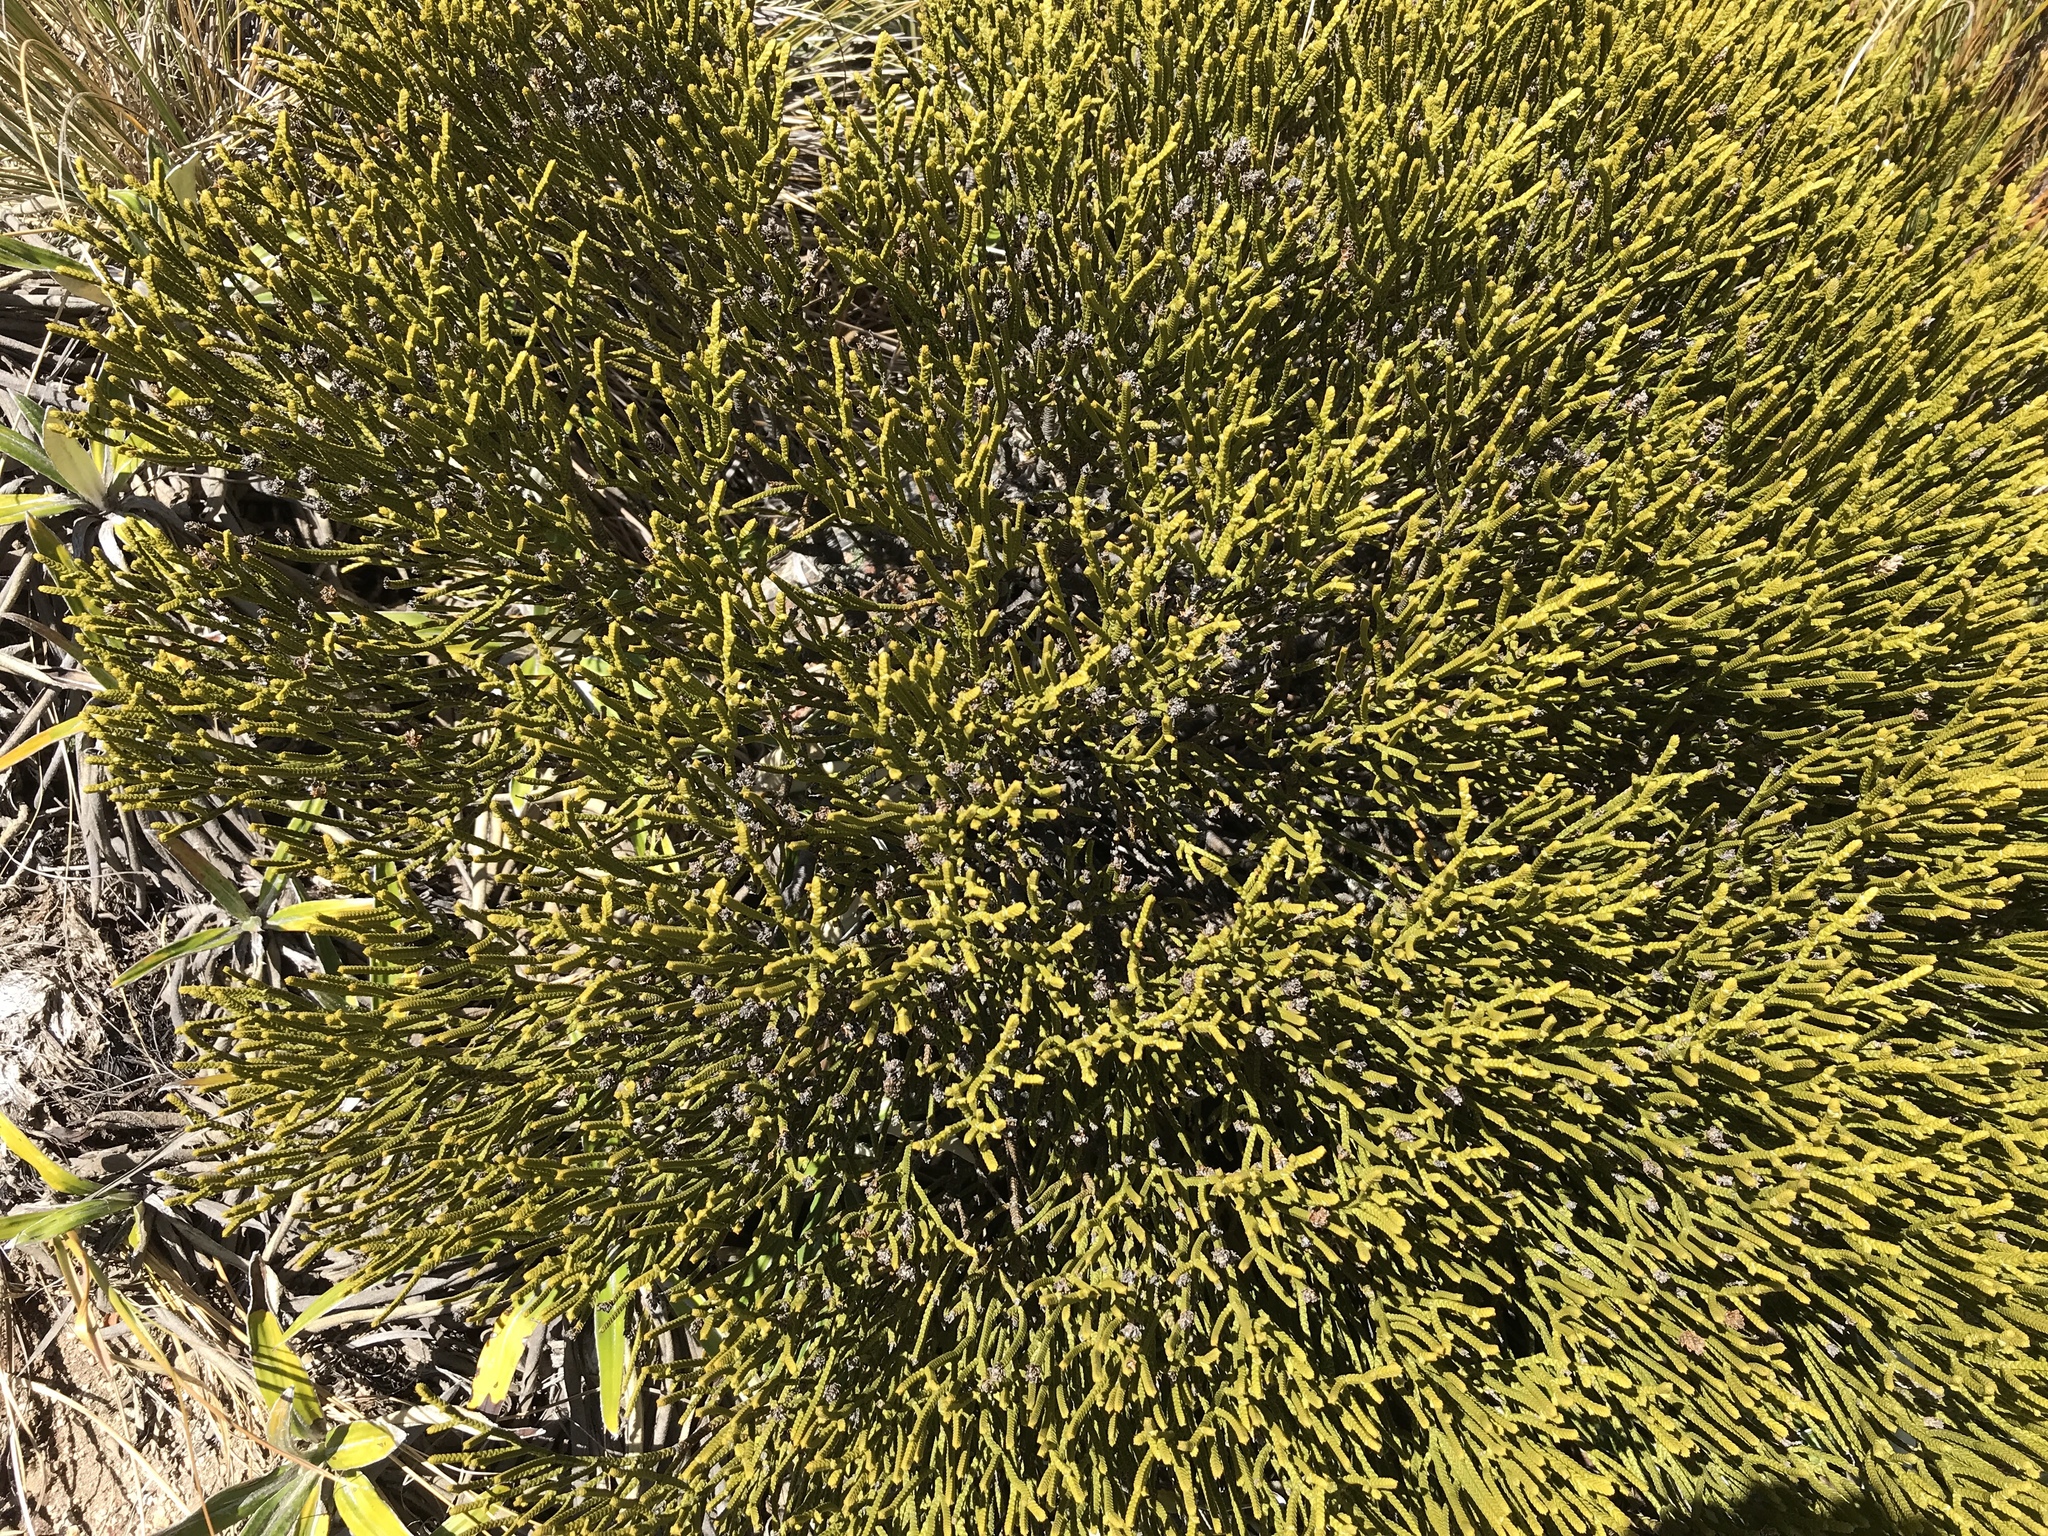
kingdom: Plantae
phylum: Tracheophyta
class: Magnoliopsida
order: Lamiales
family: Plantaginaceae
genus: Veronica
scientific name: Veronica lycopodioides
